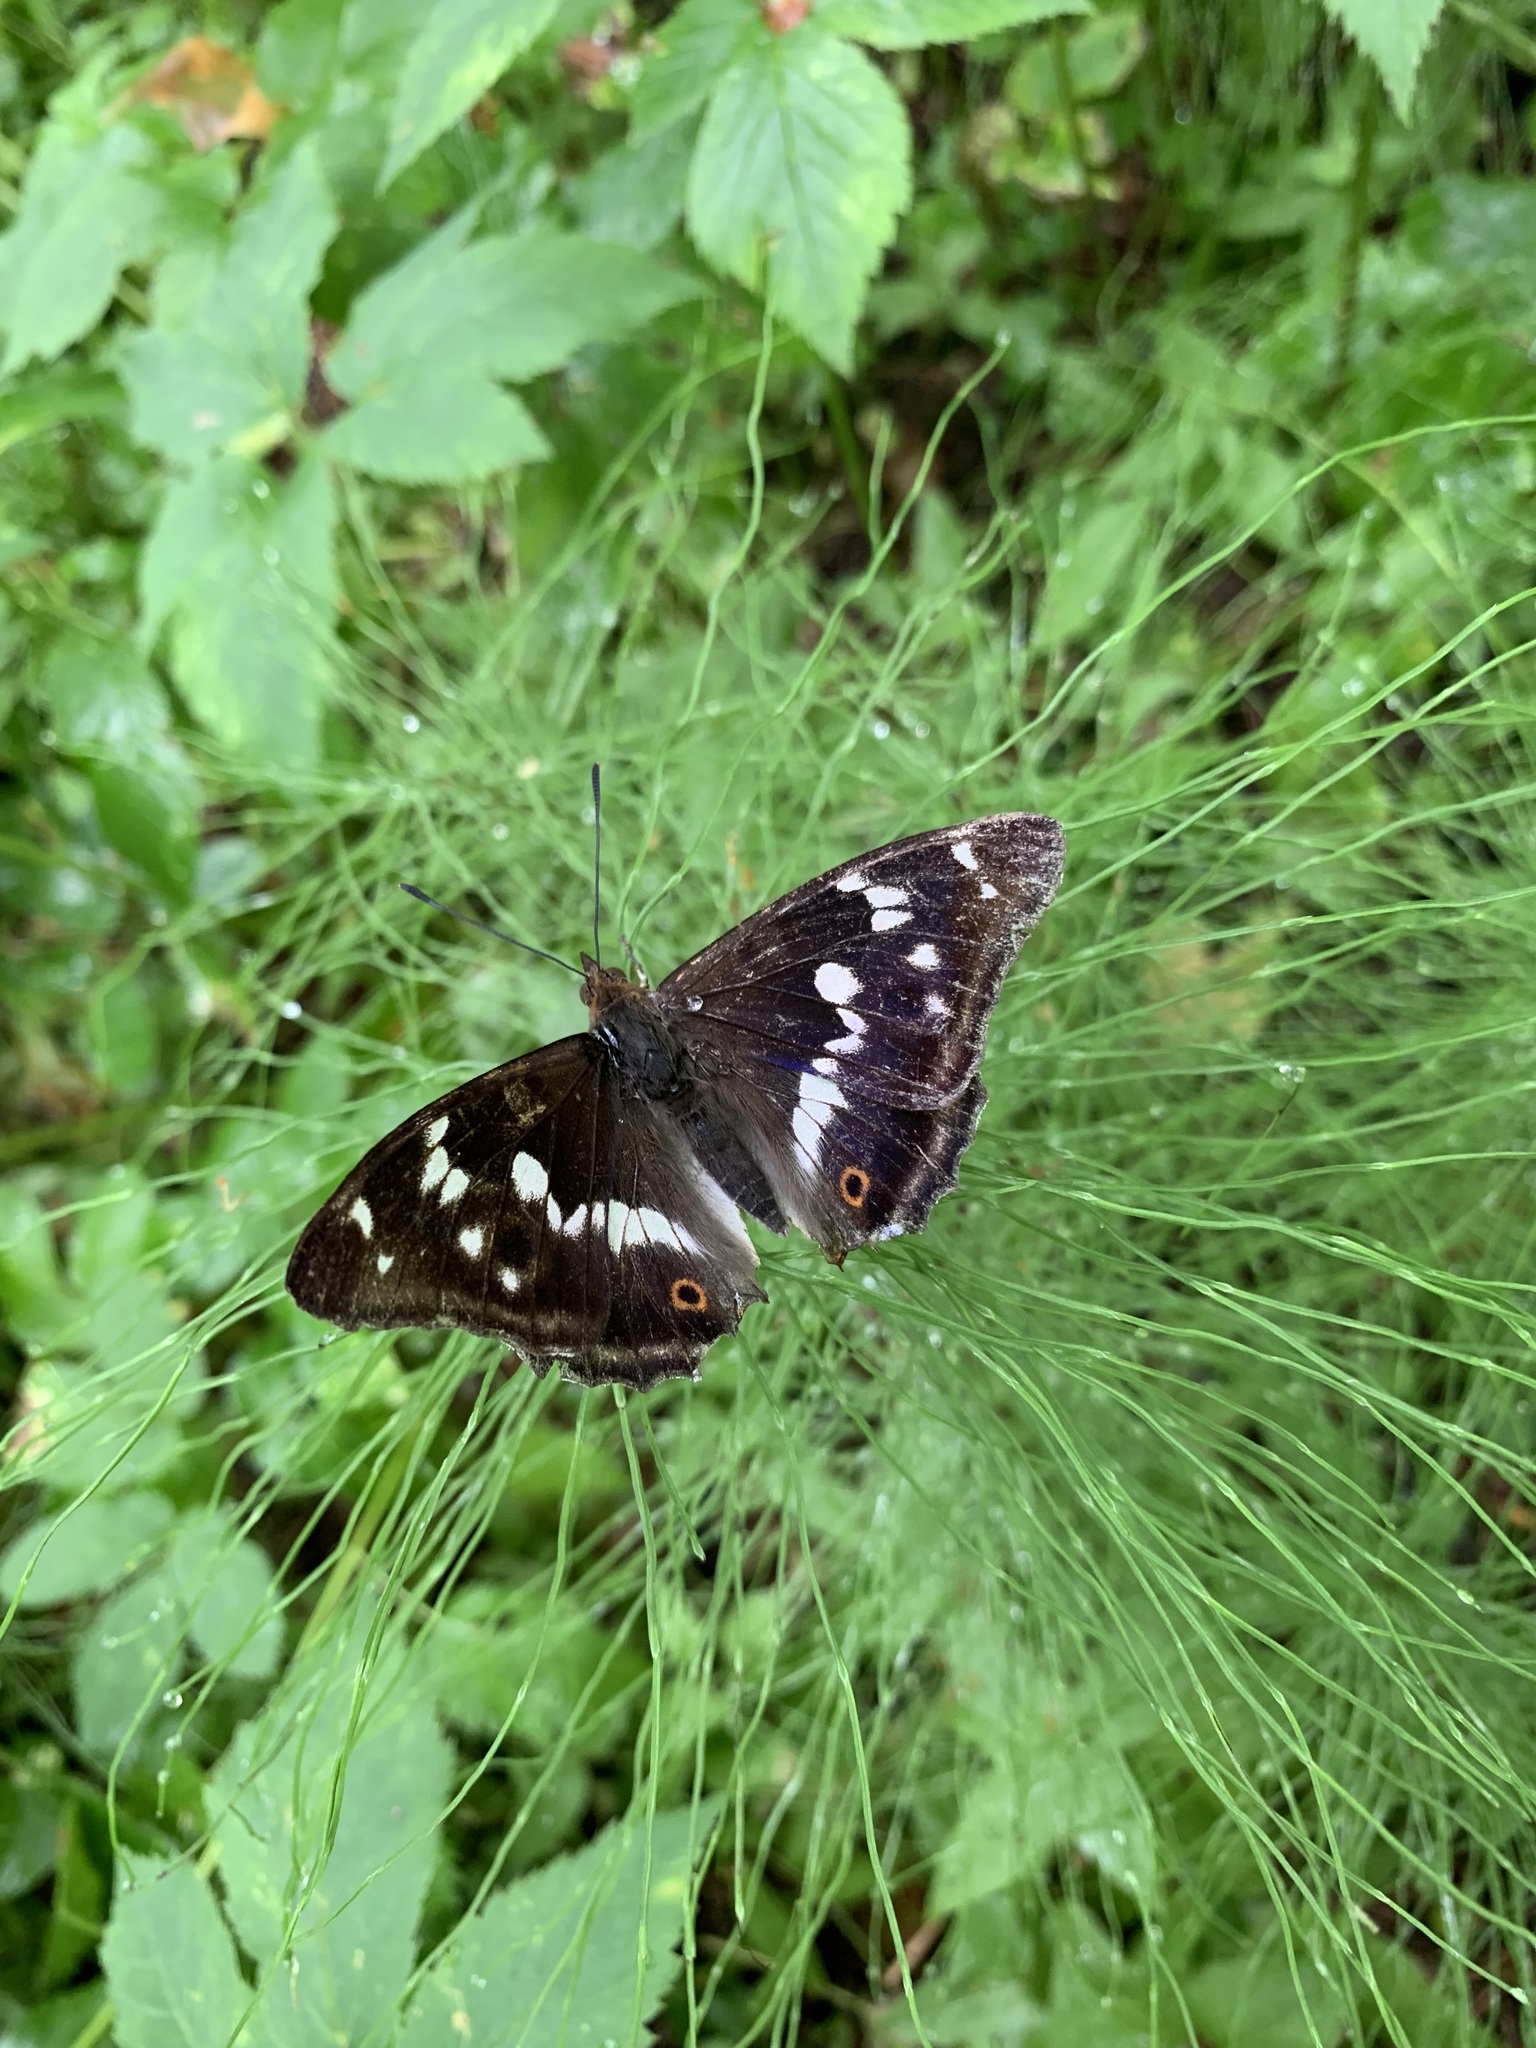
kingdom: Animalia
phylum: Arthropoda
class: Insecta
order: Lepidoptera
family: Nymphalidae
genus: Apatura
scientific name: Apatura iris
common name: Purple emperor
